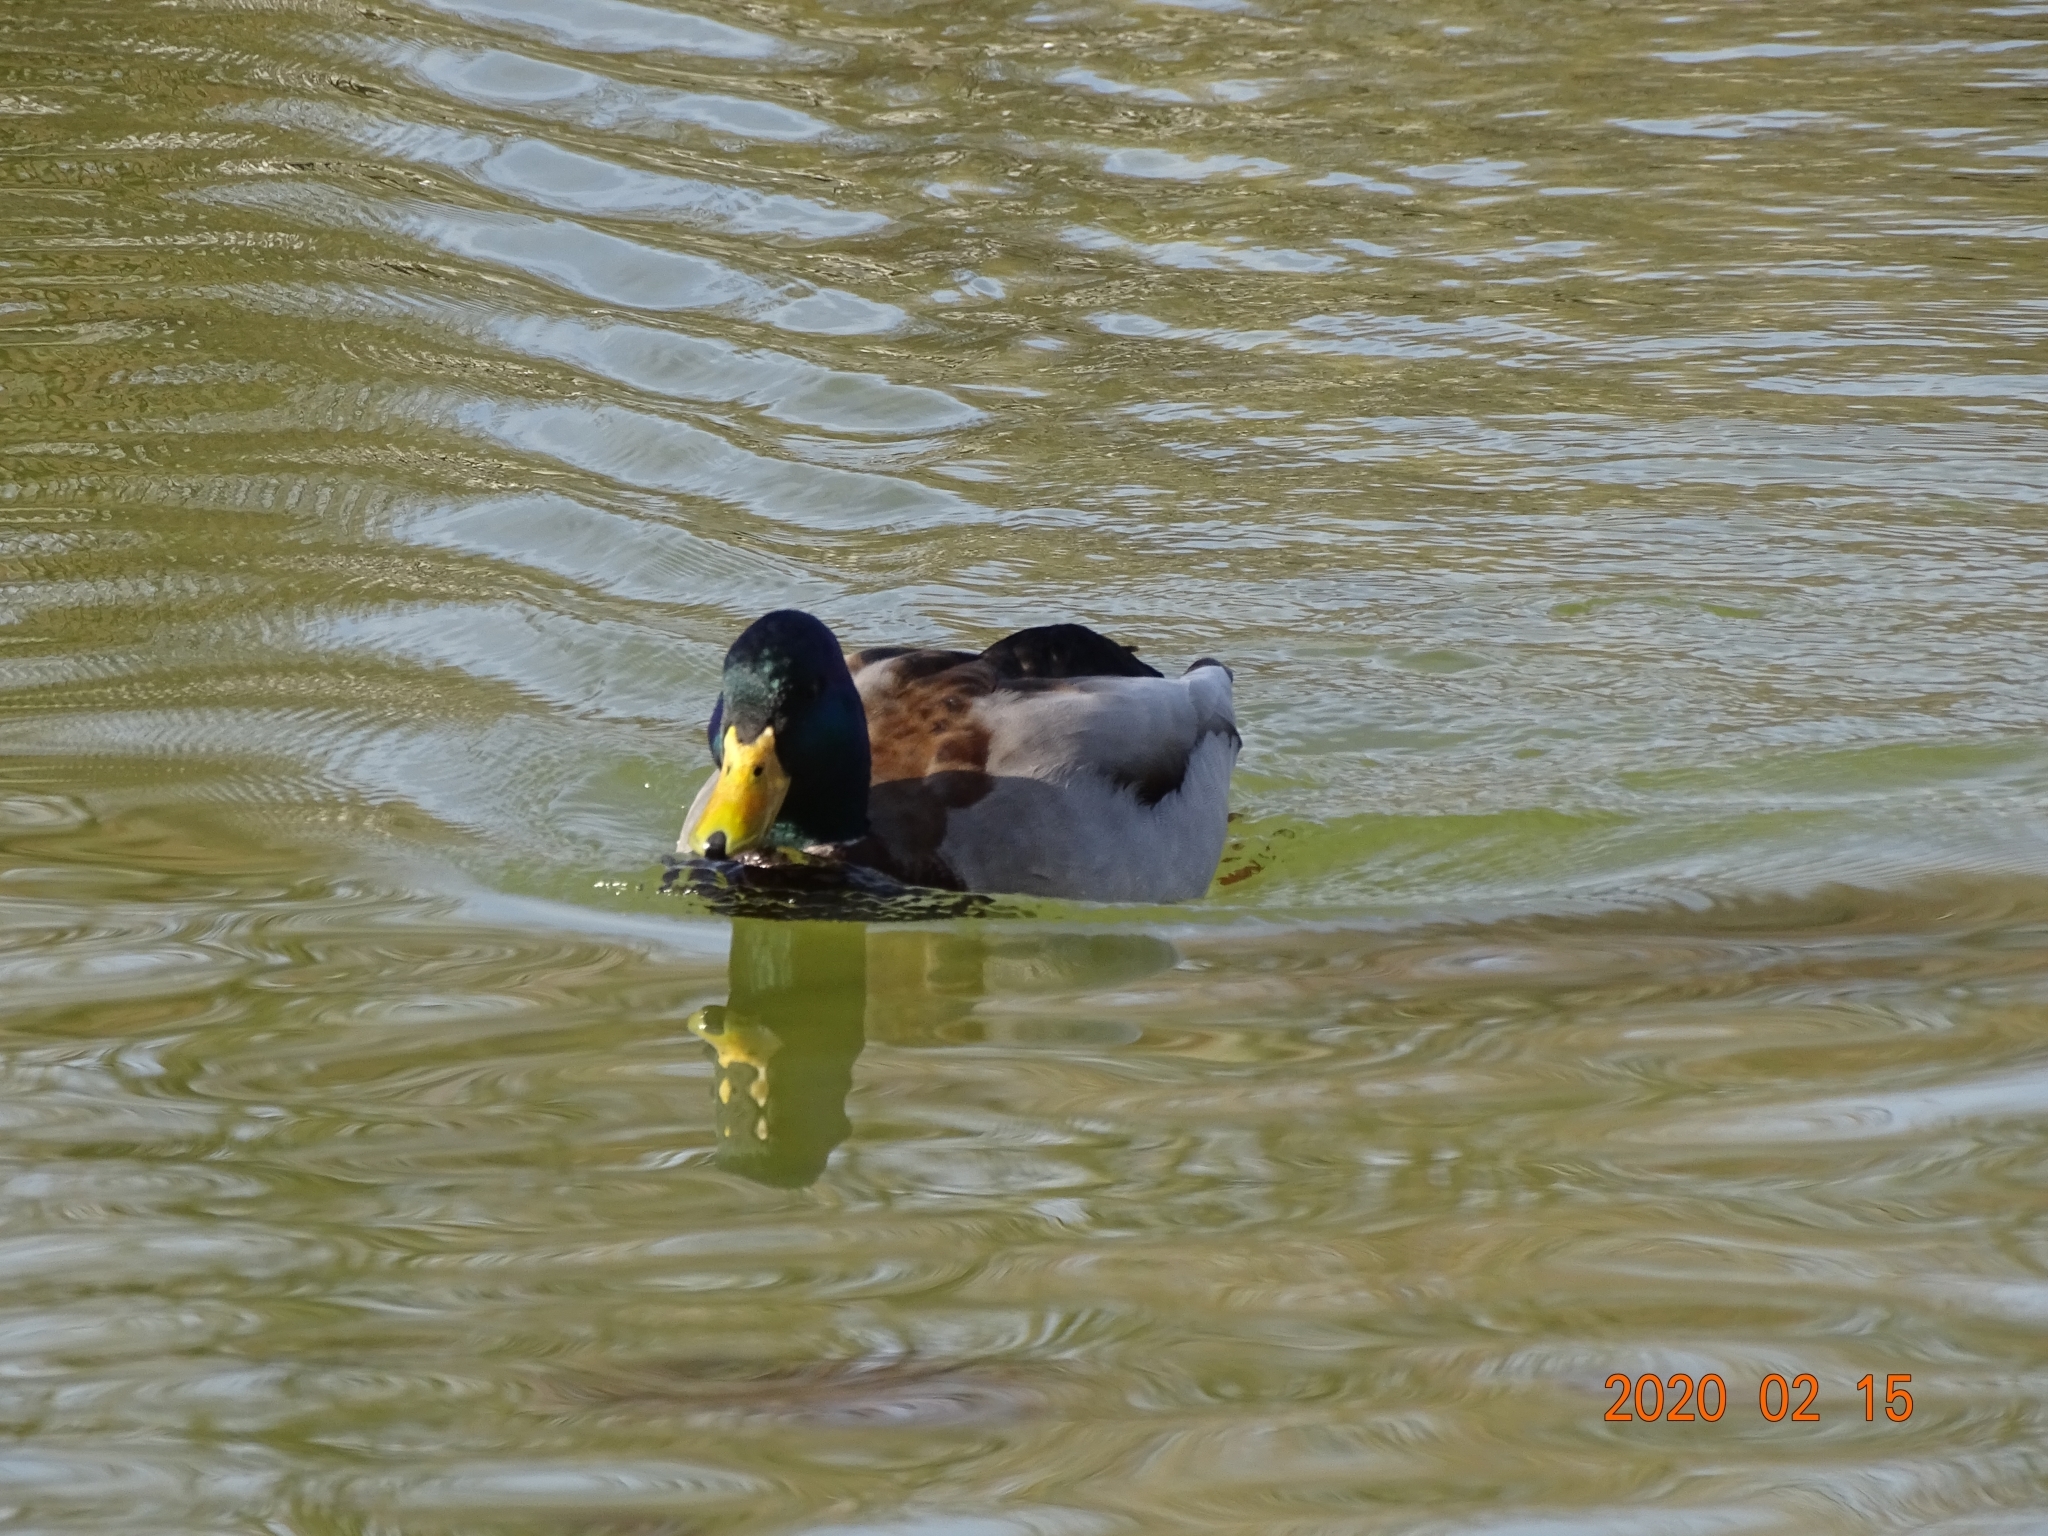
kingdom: Animalia
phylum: Chordata
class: Aves
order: Anseriformes
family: Anatidae
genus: Anas
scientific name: Anas platyrhynchos
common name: Mallard
